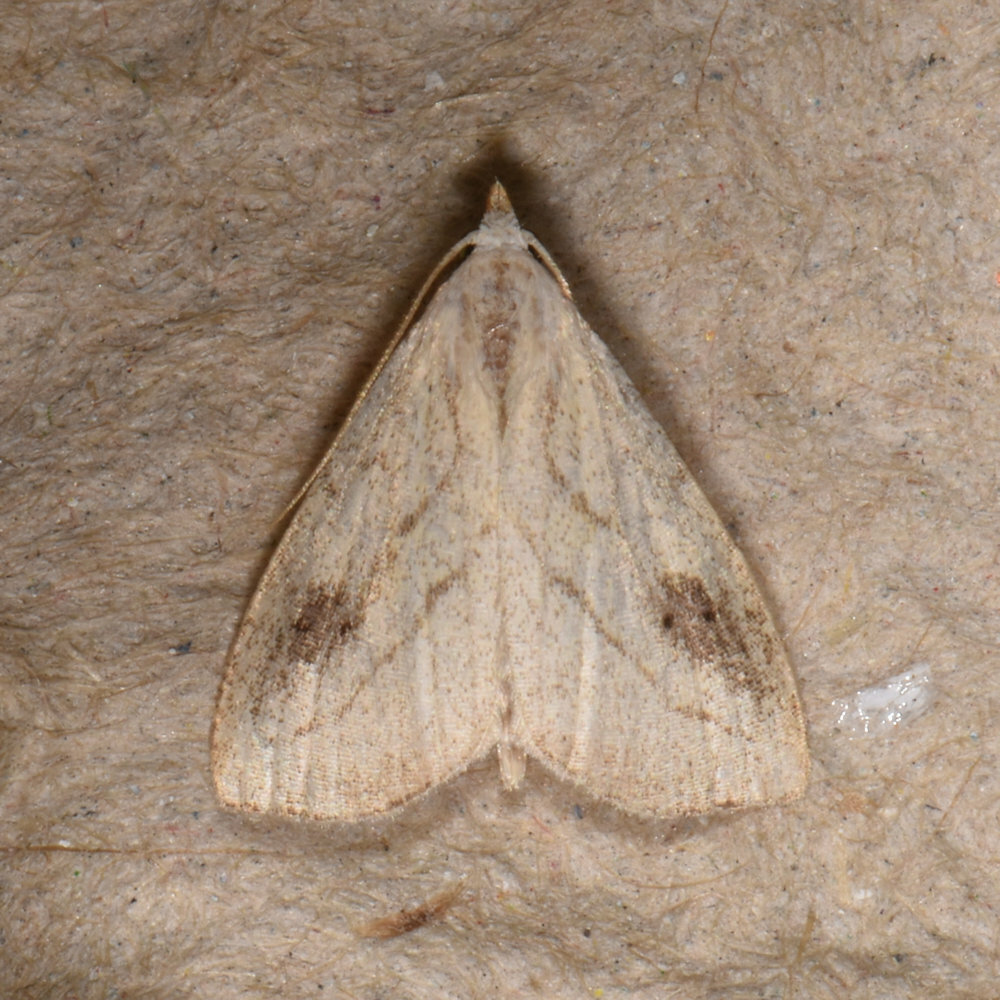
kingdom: Animalia
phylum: Arthropoda
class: Insecta
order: Lepidoptera
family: Erebidae
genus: Rivula
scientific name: Rivula propinqualis
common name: Spotted grass moth
